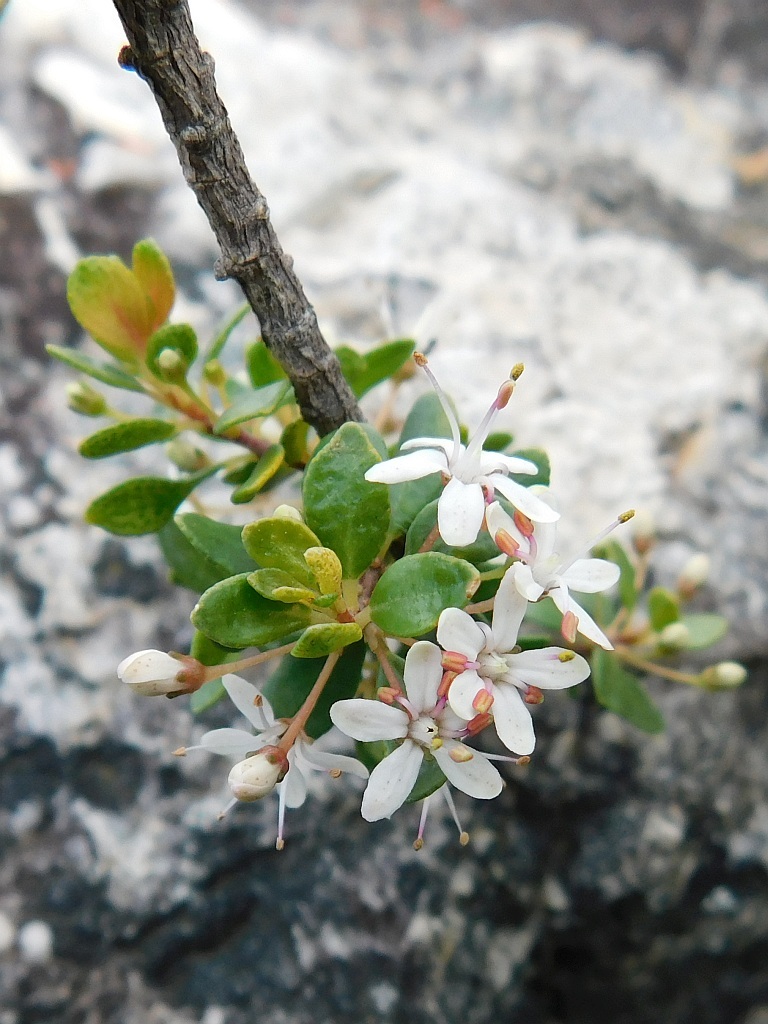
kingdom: Plantae
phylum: Tracheophyta
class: Magnoliopsida
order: Sapindales
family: Rutaceae
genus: Agathosma
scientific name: Agathosma ovata
